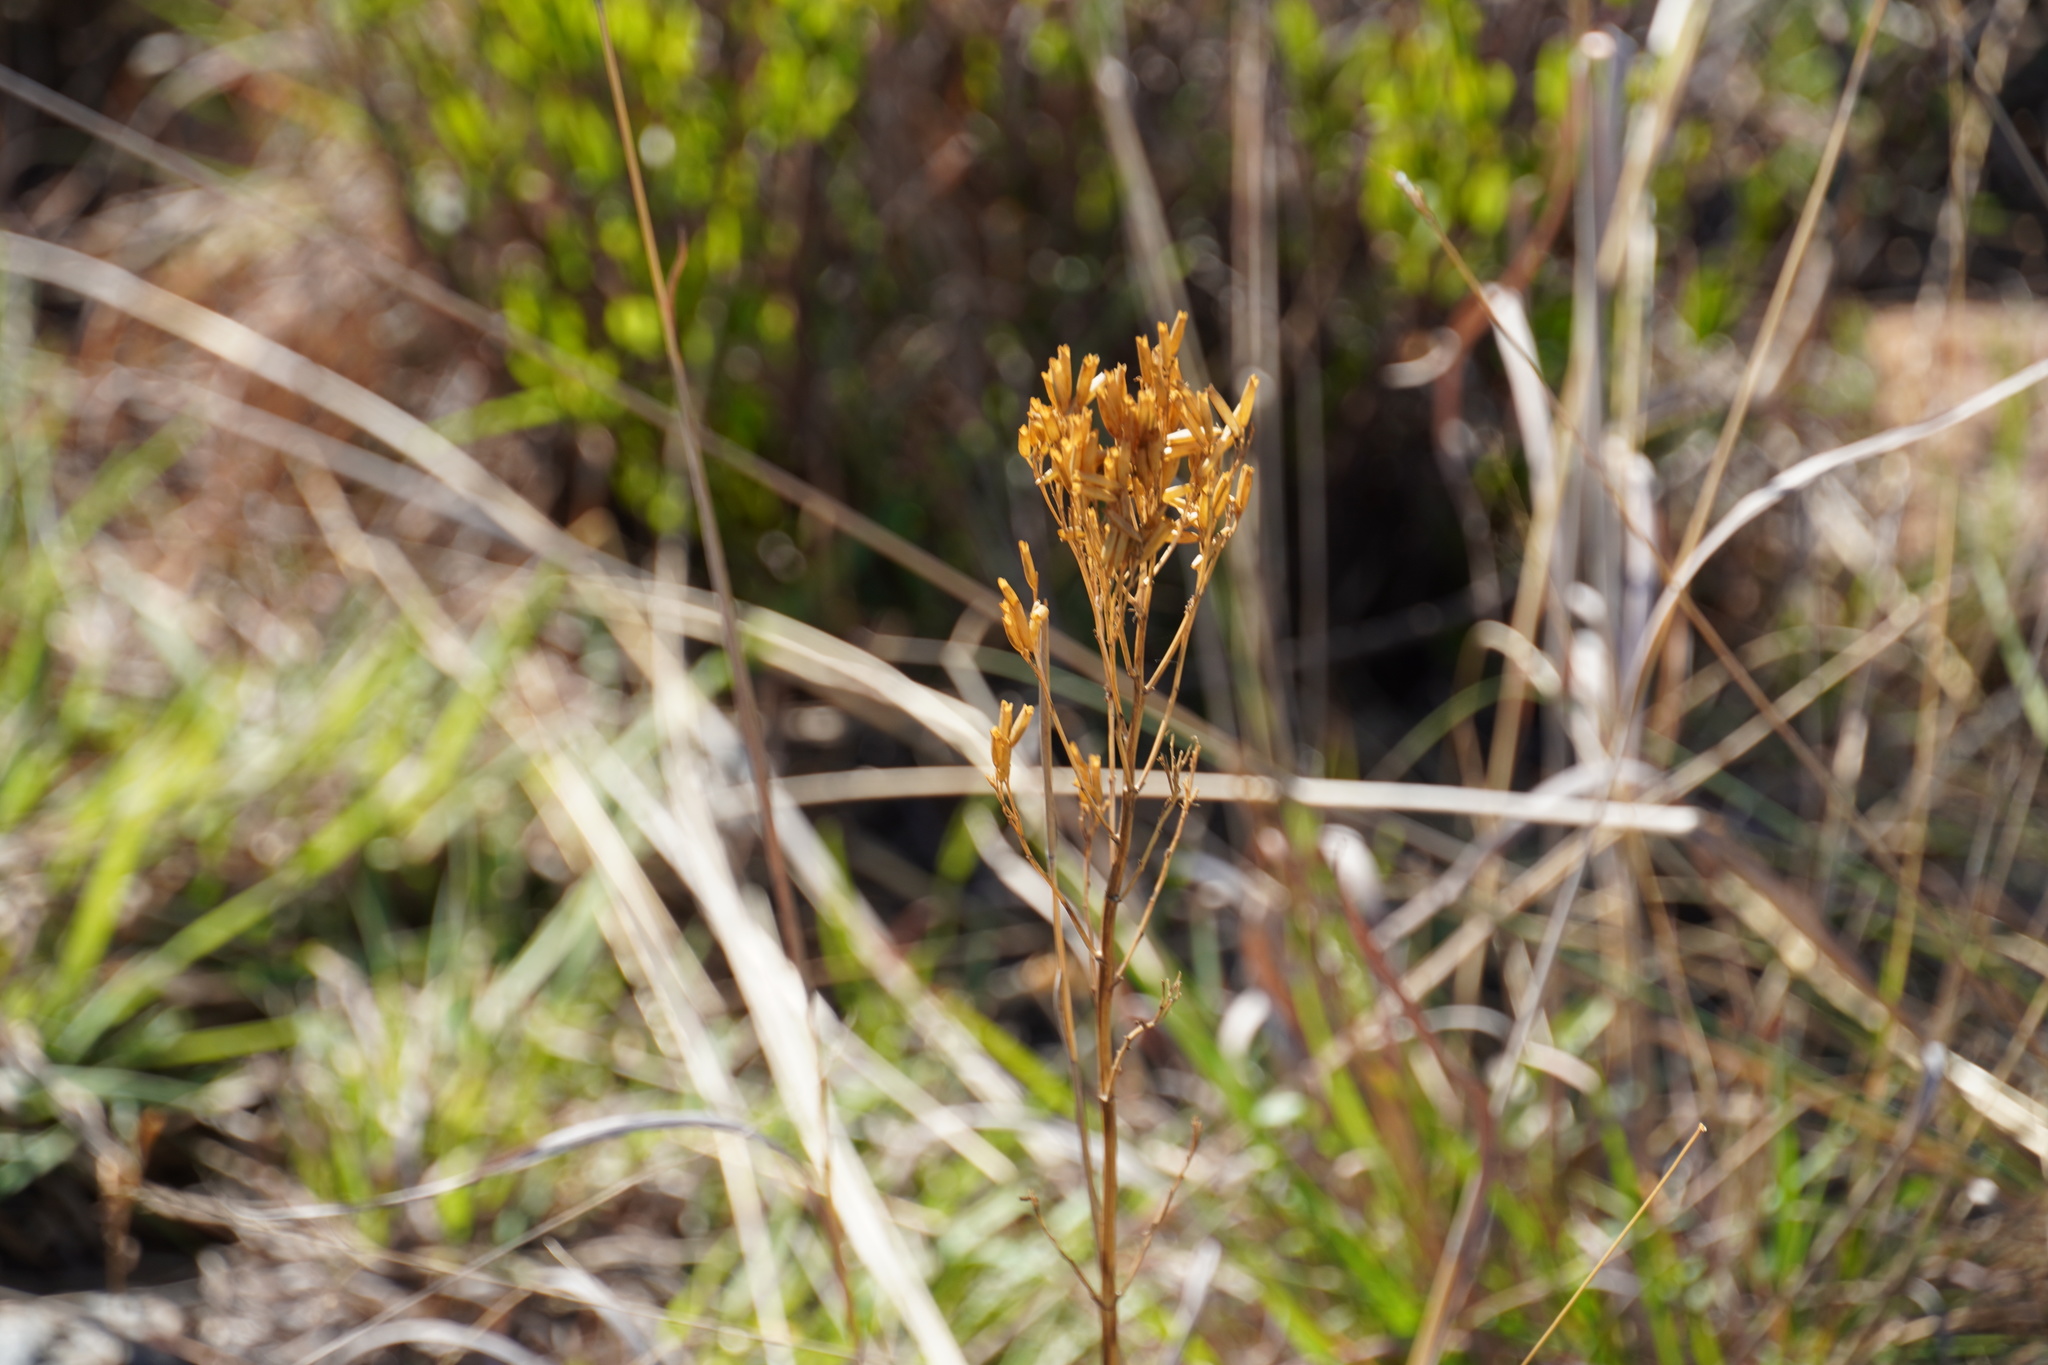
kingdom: Plantae
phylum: Tracheophyta
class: Magnoliopsida
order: Asterales
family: Asteraceae
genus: Tagetes
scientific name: Tagetes minuta
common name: Muster john henry
